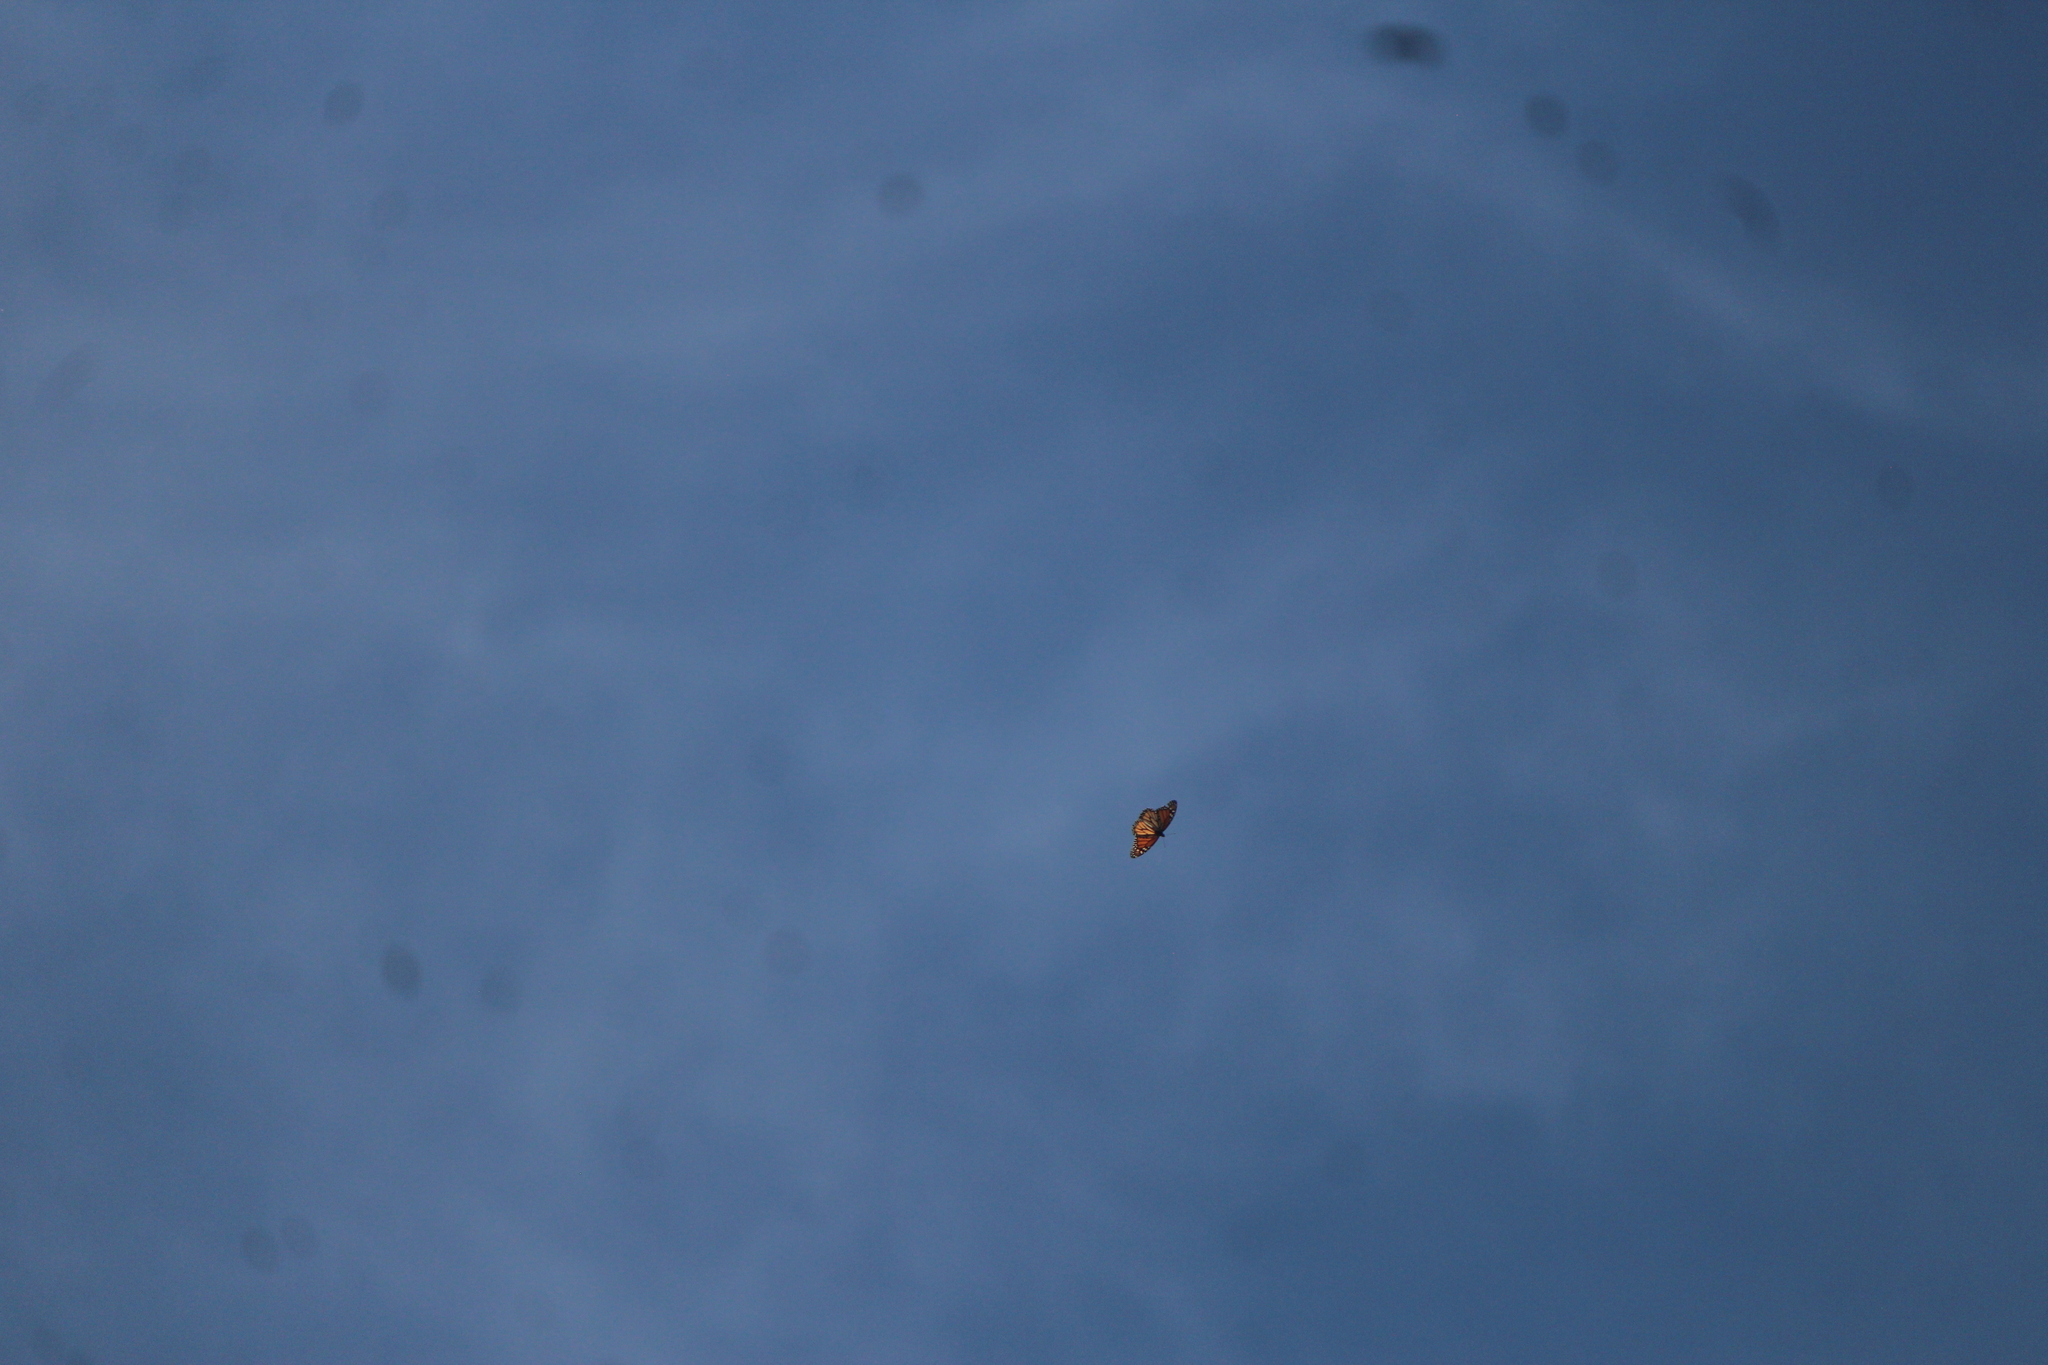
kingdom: Animalia
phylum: Arthropoda
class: Insecta
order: Lepidoptera
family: Nymphalidae
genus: Danaus
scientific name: Danaus plexippus
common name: Monarch
